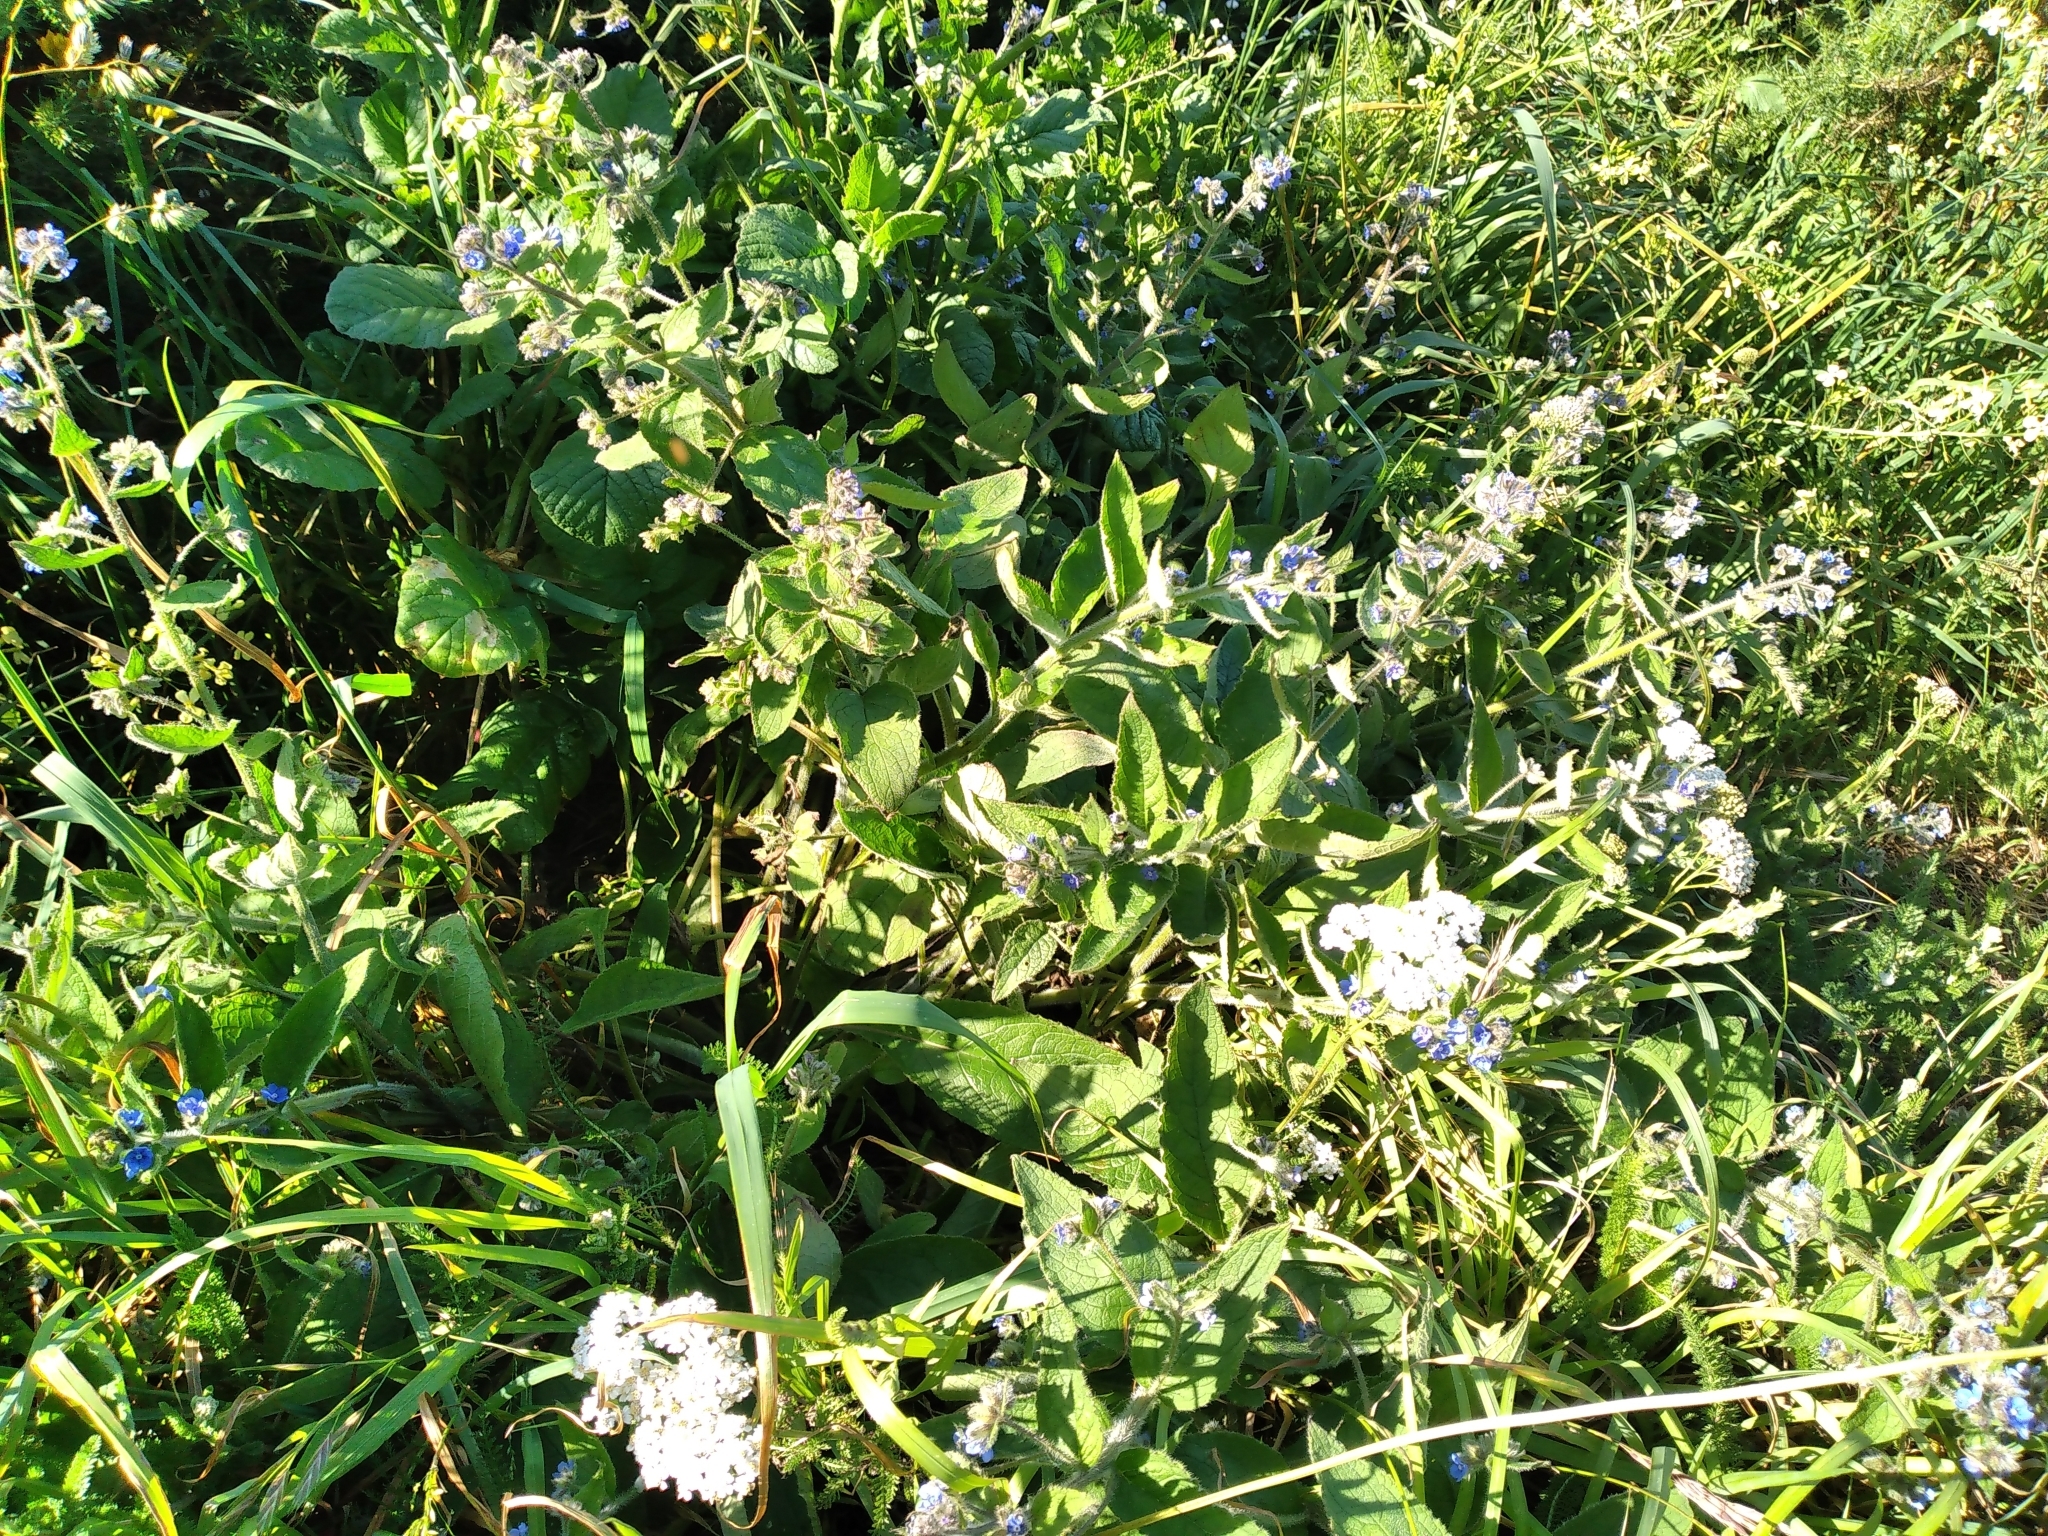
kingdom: Plantae
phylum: Tracheophyta
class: Magnoliopsida
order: Boraginales
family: Boraginaceae
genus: Pentaglottis
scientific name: Pentaglottis sempervirens
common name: Green alkanet
